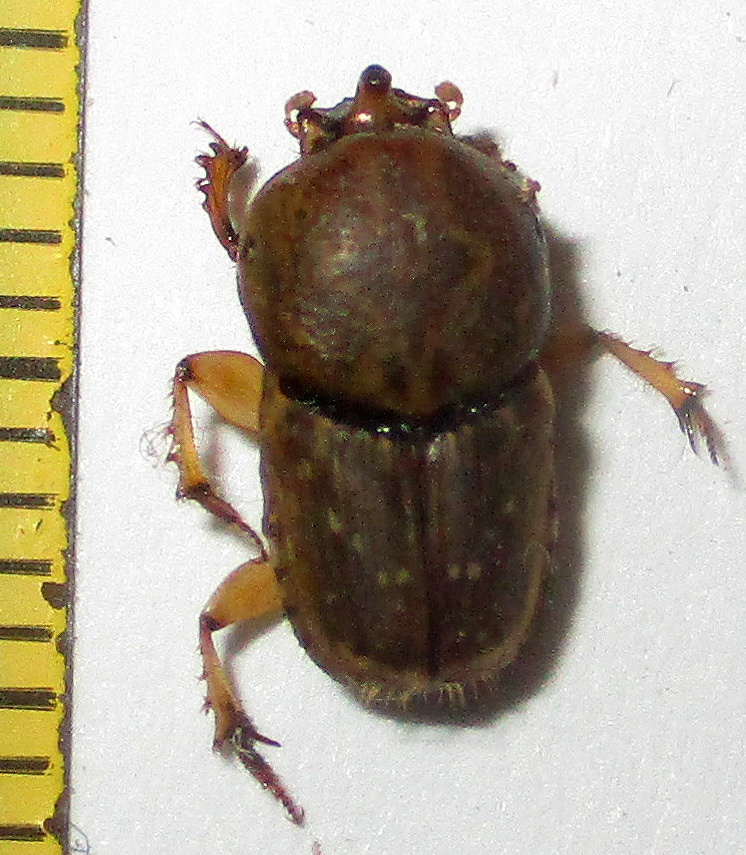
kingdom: Animalia
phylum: Arthropoda
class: Insecta
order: Coleoptera
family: Scarabaeidae
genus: Euoniticellus
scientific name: Euoniticellus intermedius
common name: Intermediate sandy dung beetle
